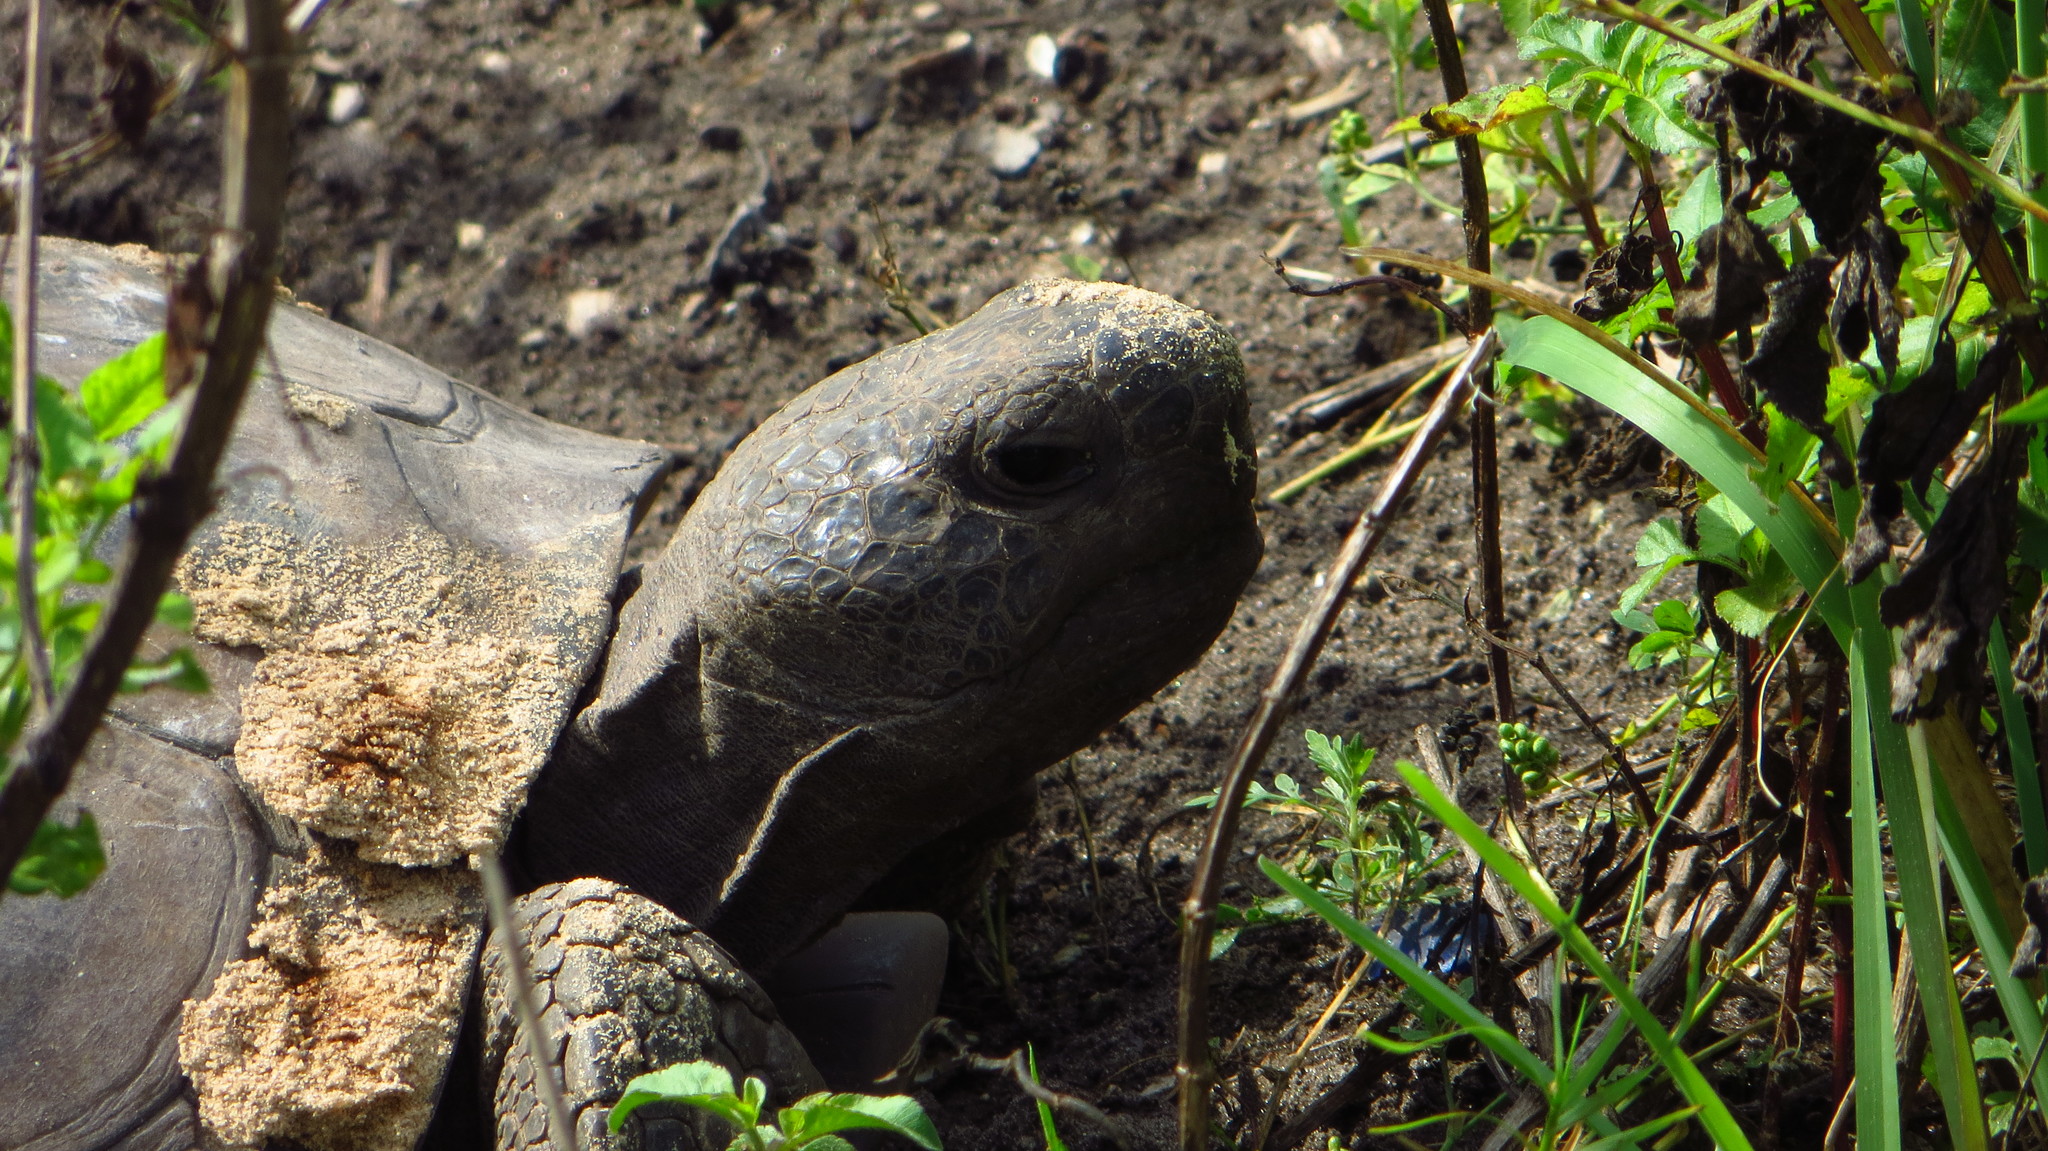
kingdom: Animalia
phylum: Chordata
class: Testudines
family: Testudinidae
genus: Gopherus
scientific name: Gopherus polyphemus
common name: Florida gopher tortoise
